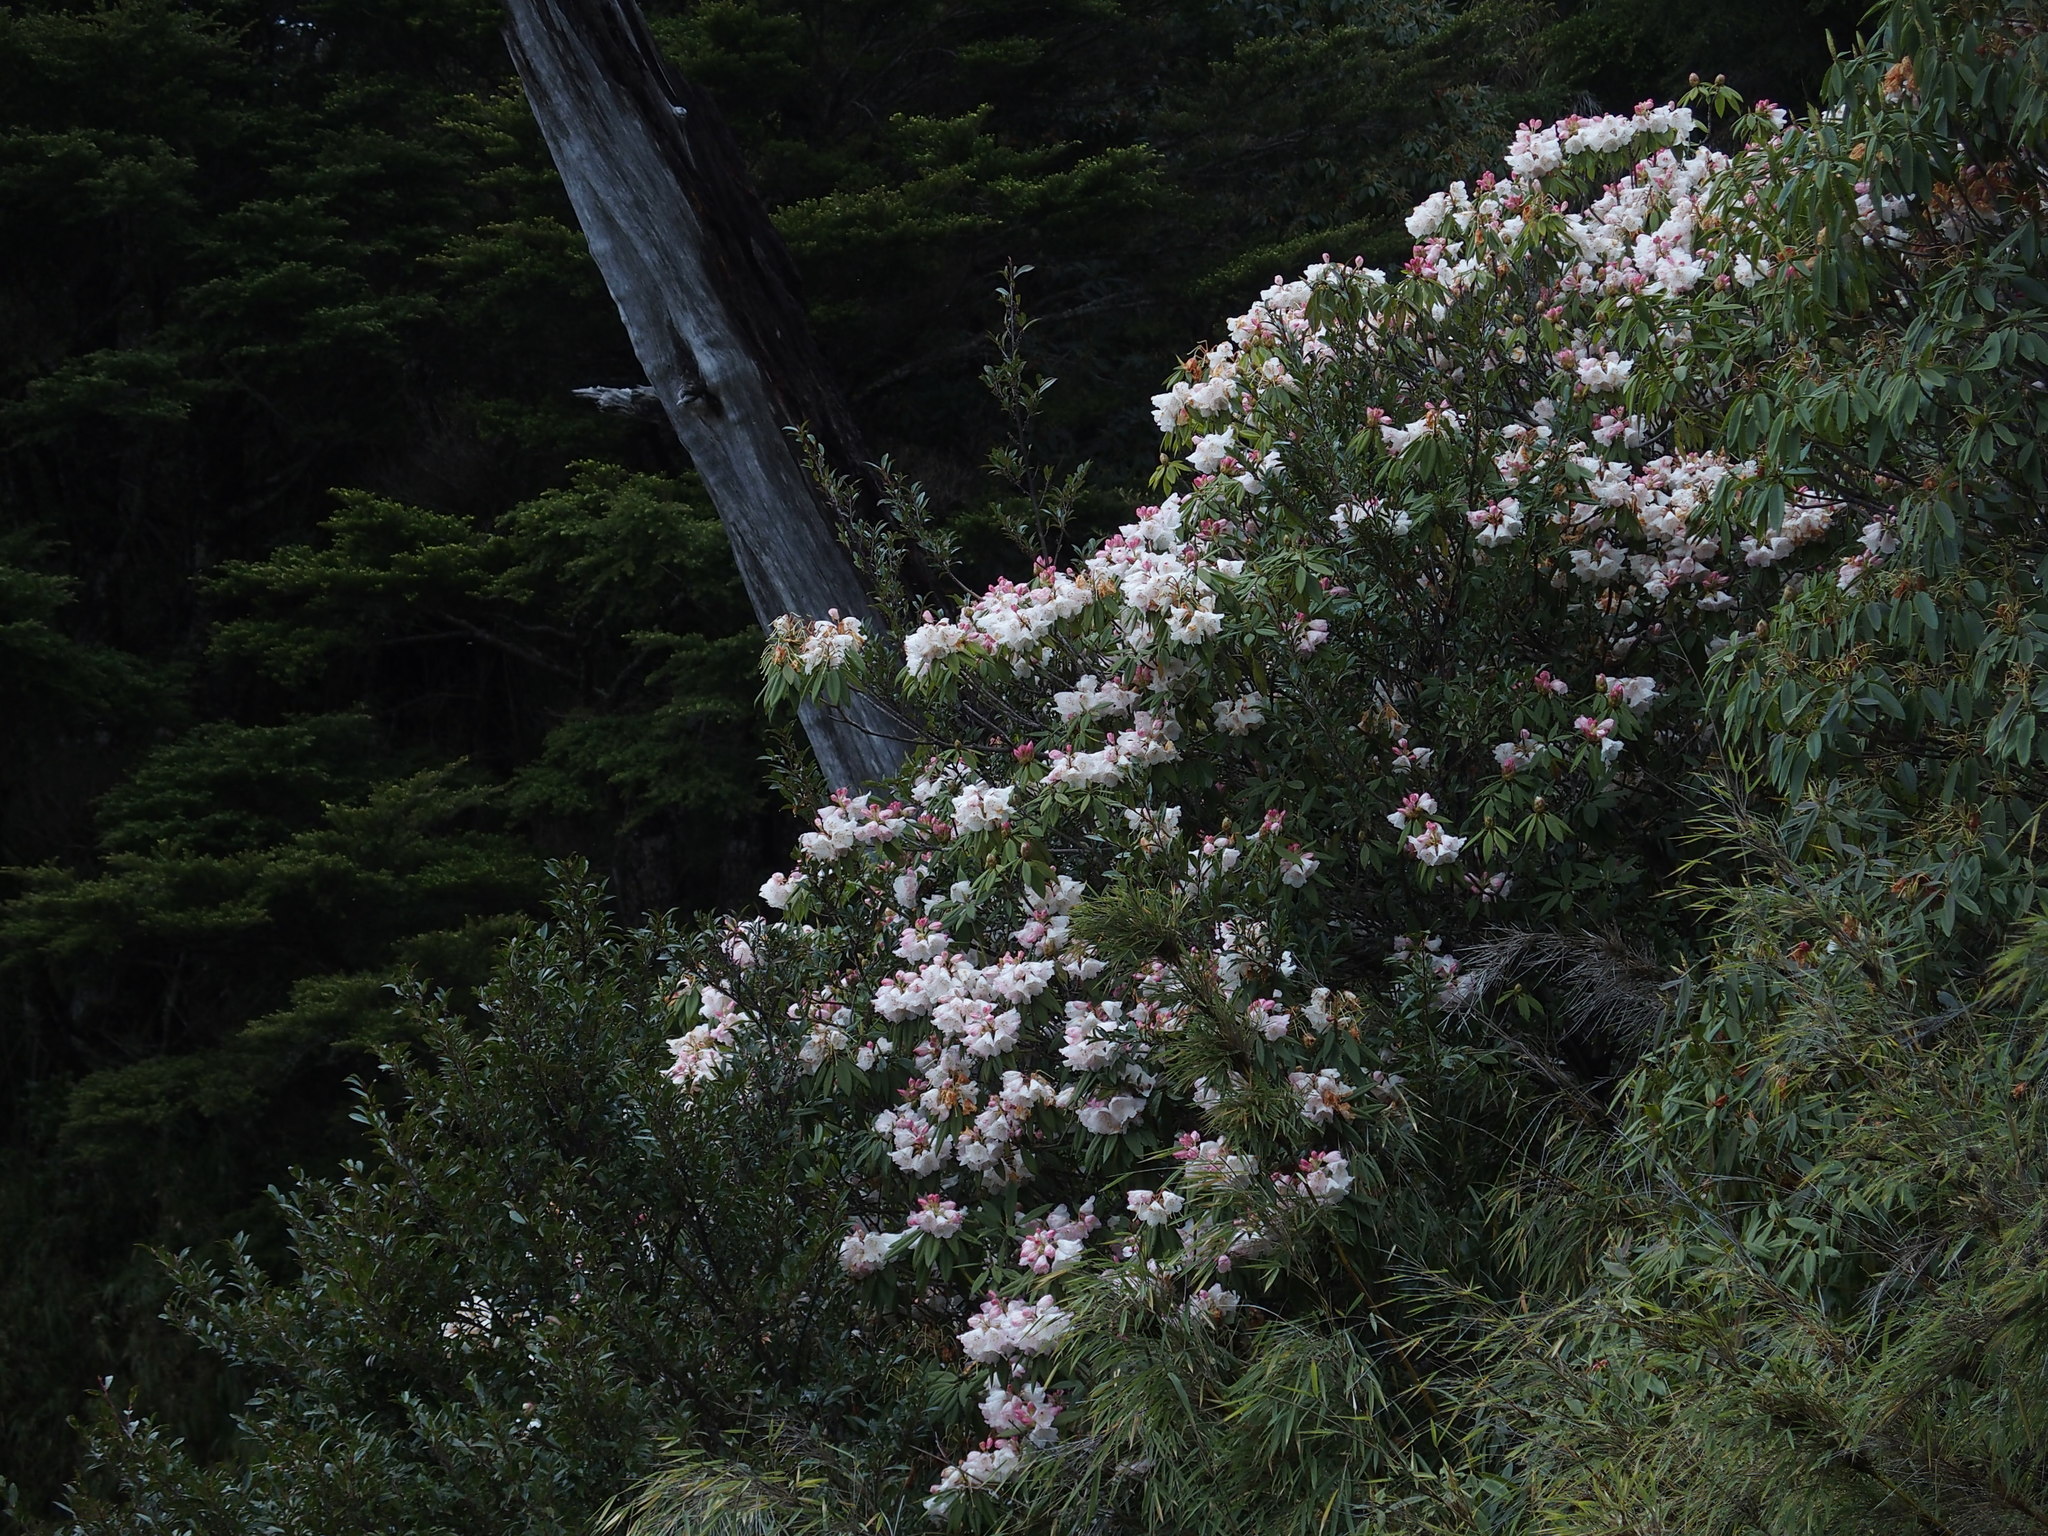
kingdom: Plantae
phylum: Tracheophyta
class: Magnoliopsida
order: Ericales
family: Ericaceae
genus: Rhododendron
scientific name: Rhododendron pseudochrysanthum
